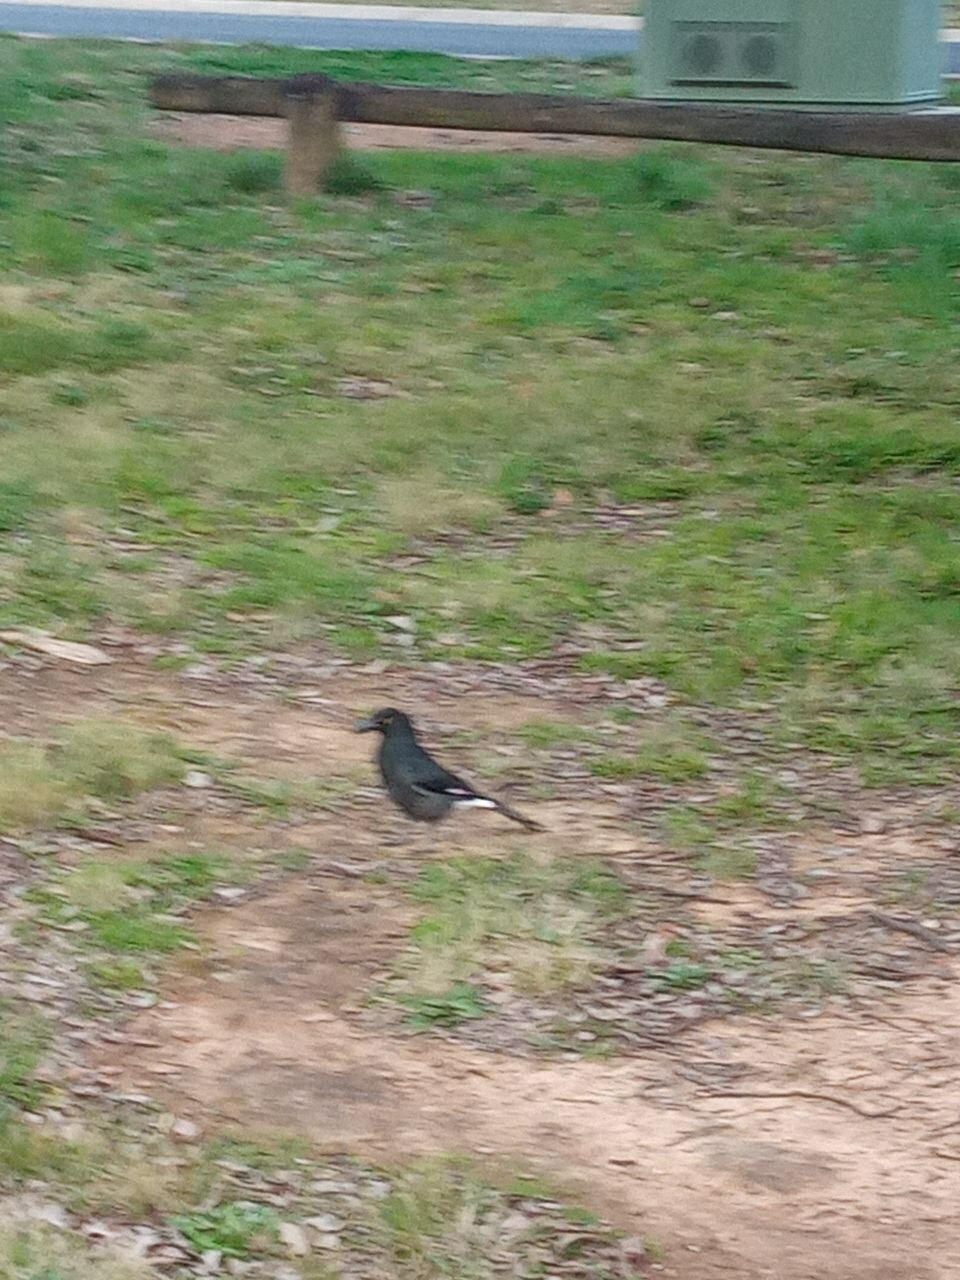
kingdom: Animalia
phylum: Chordata
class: Aves
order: Passeriformes
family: Cracticidae
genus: Strepera
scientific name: Strepera graculina
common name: Pied currawong
